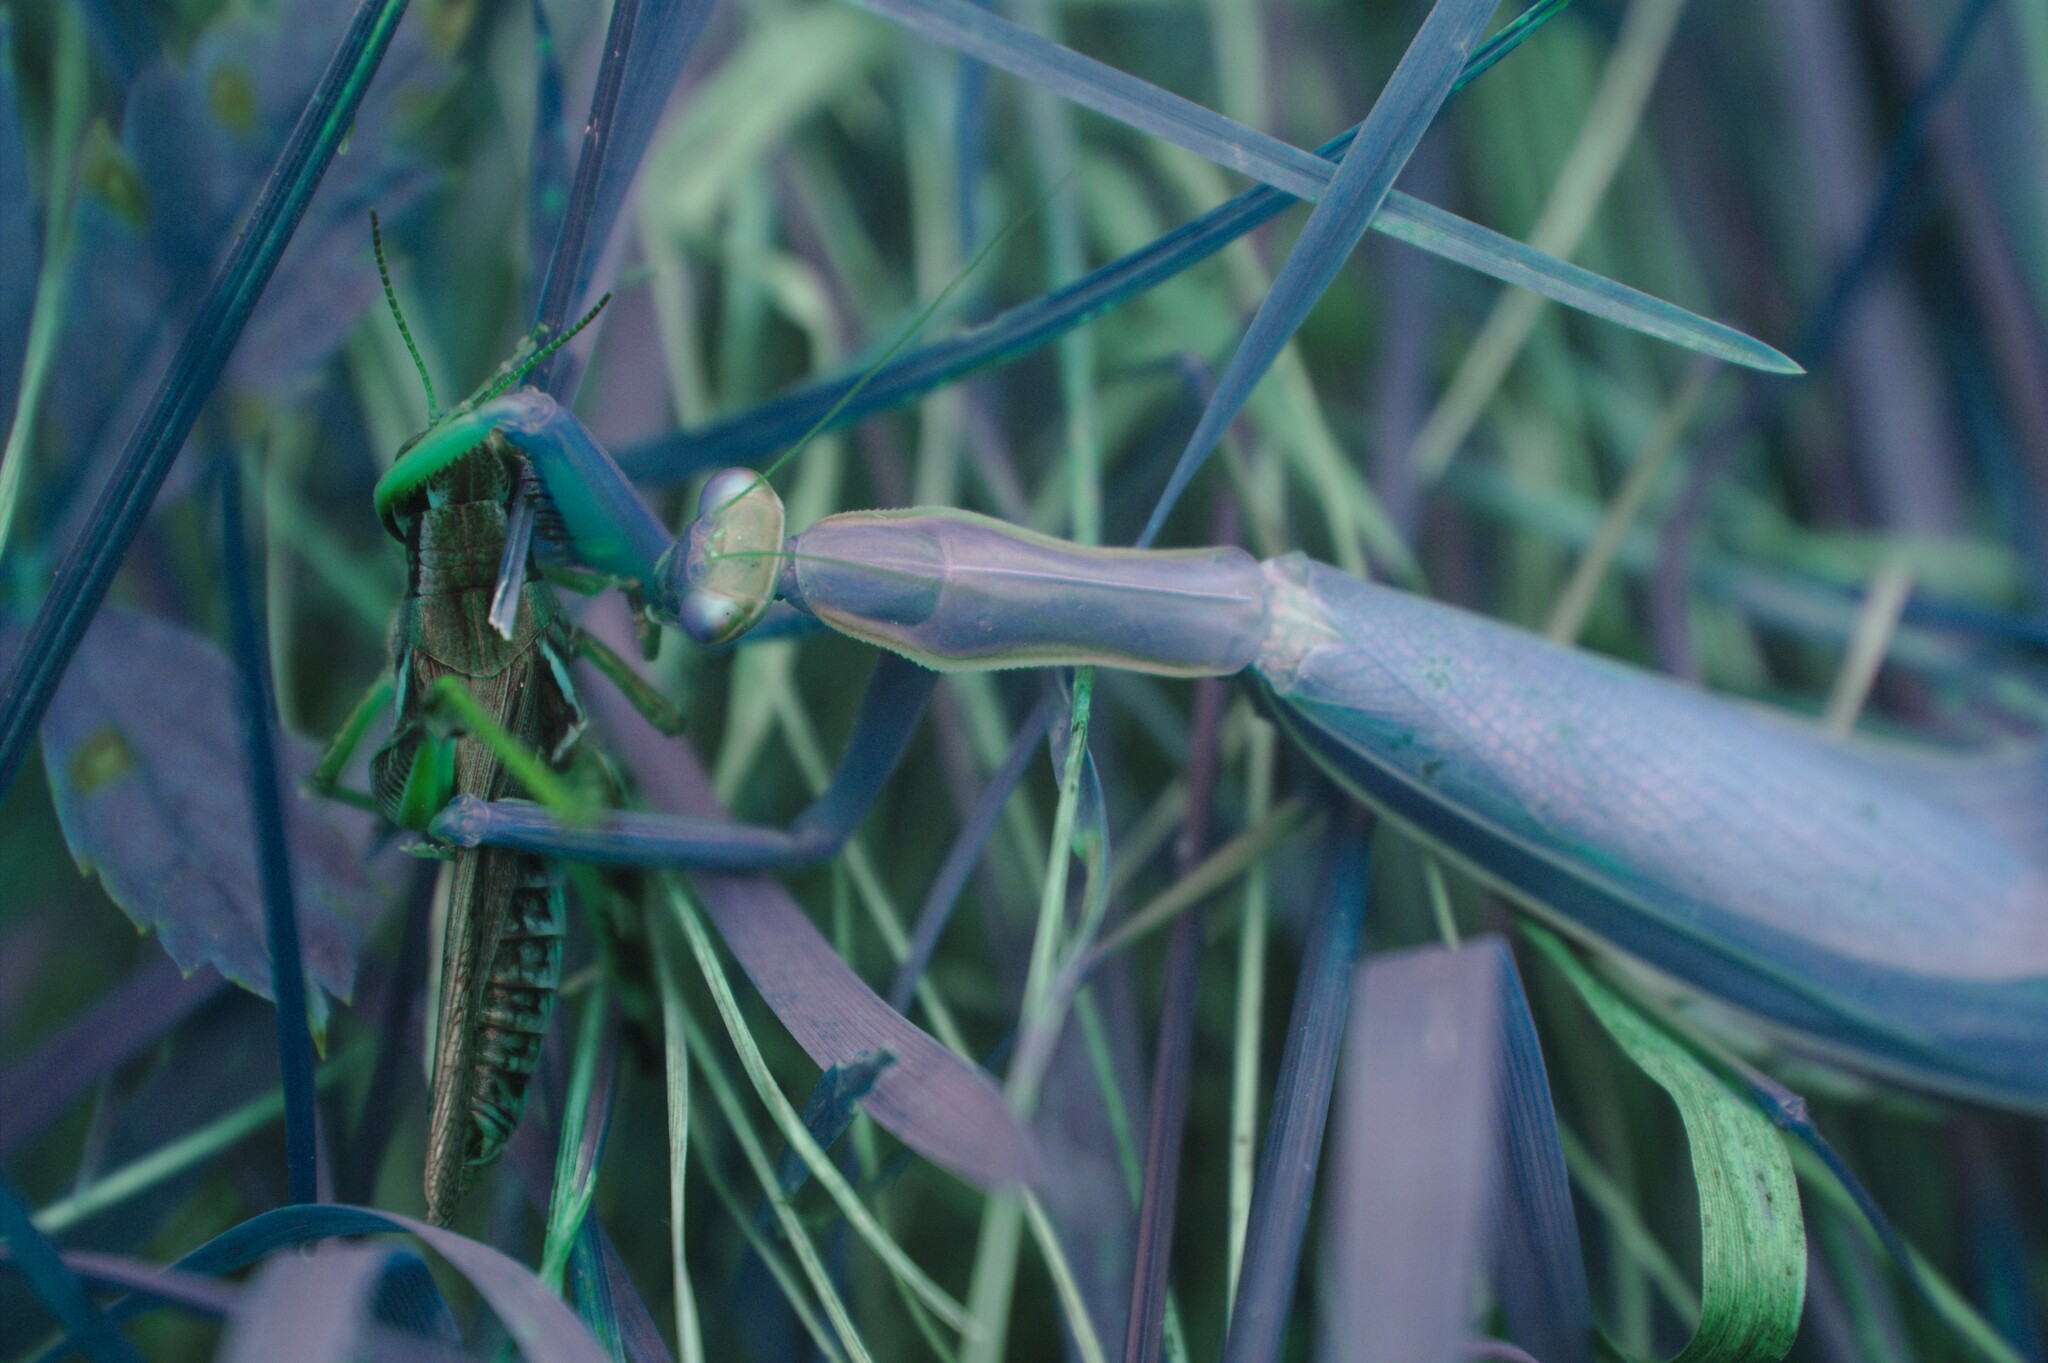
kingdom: Animalia
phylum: Arthropoda
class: Insecta
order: Mantodea
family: Mantidae
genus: Mantis
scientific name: Mantis religiosa
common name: Praying mantis
